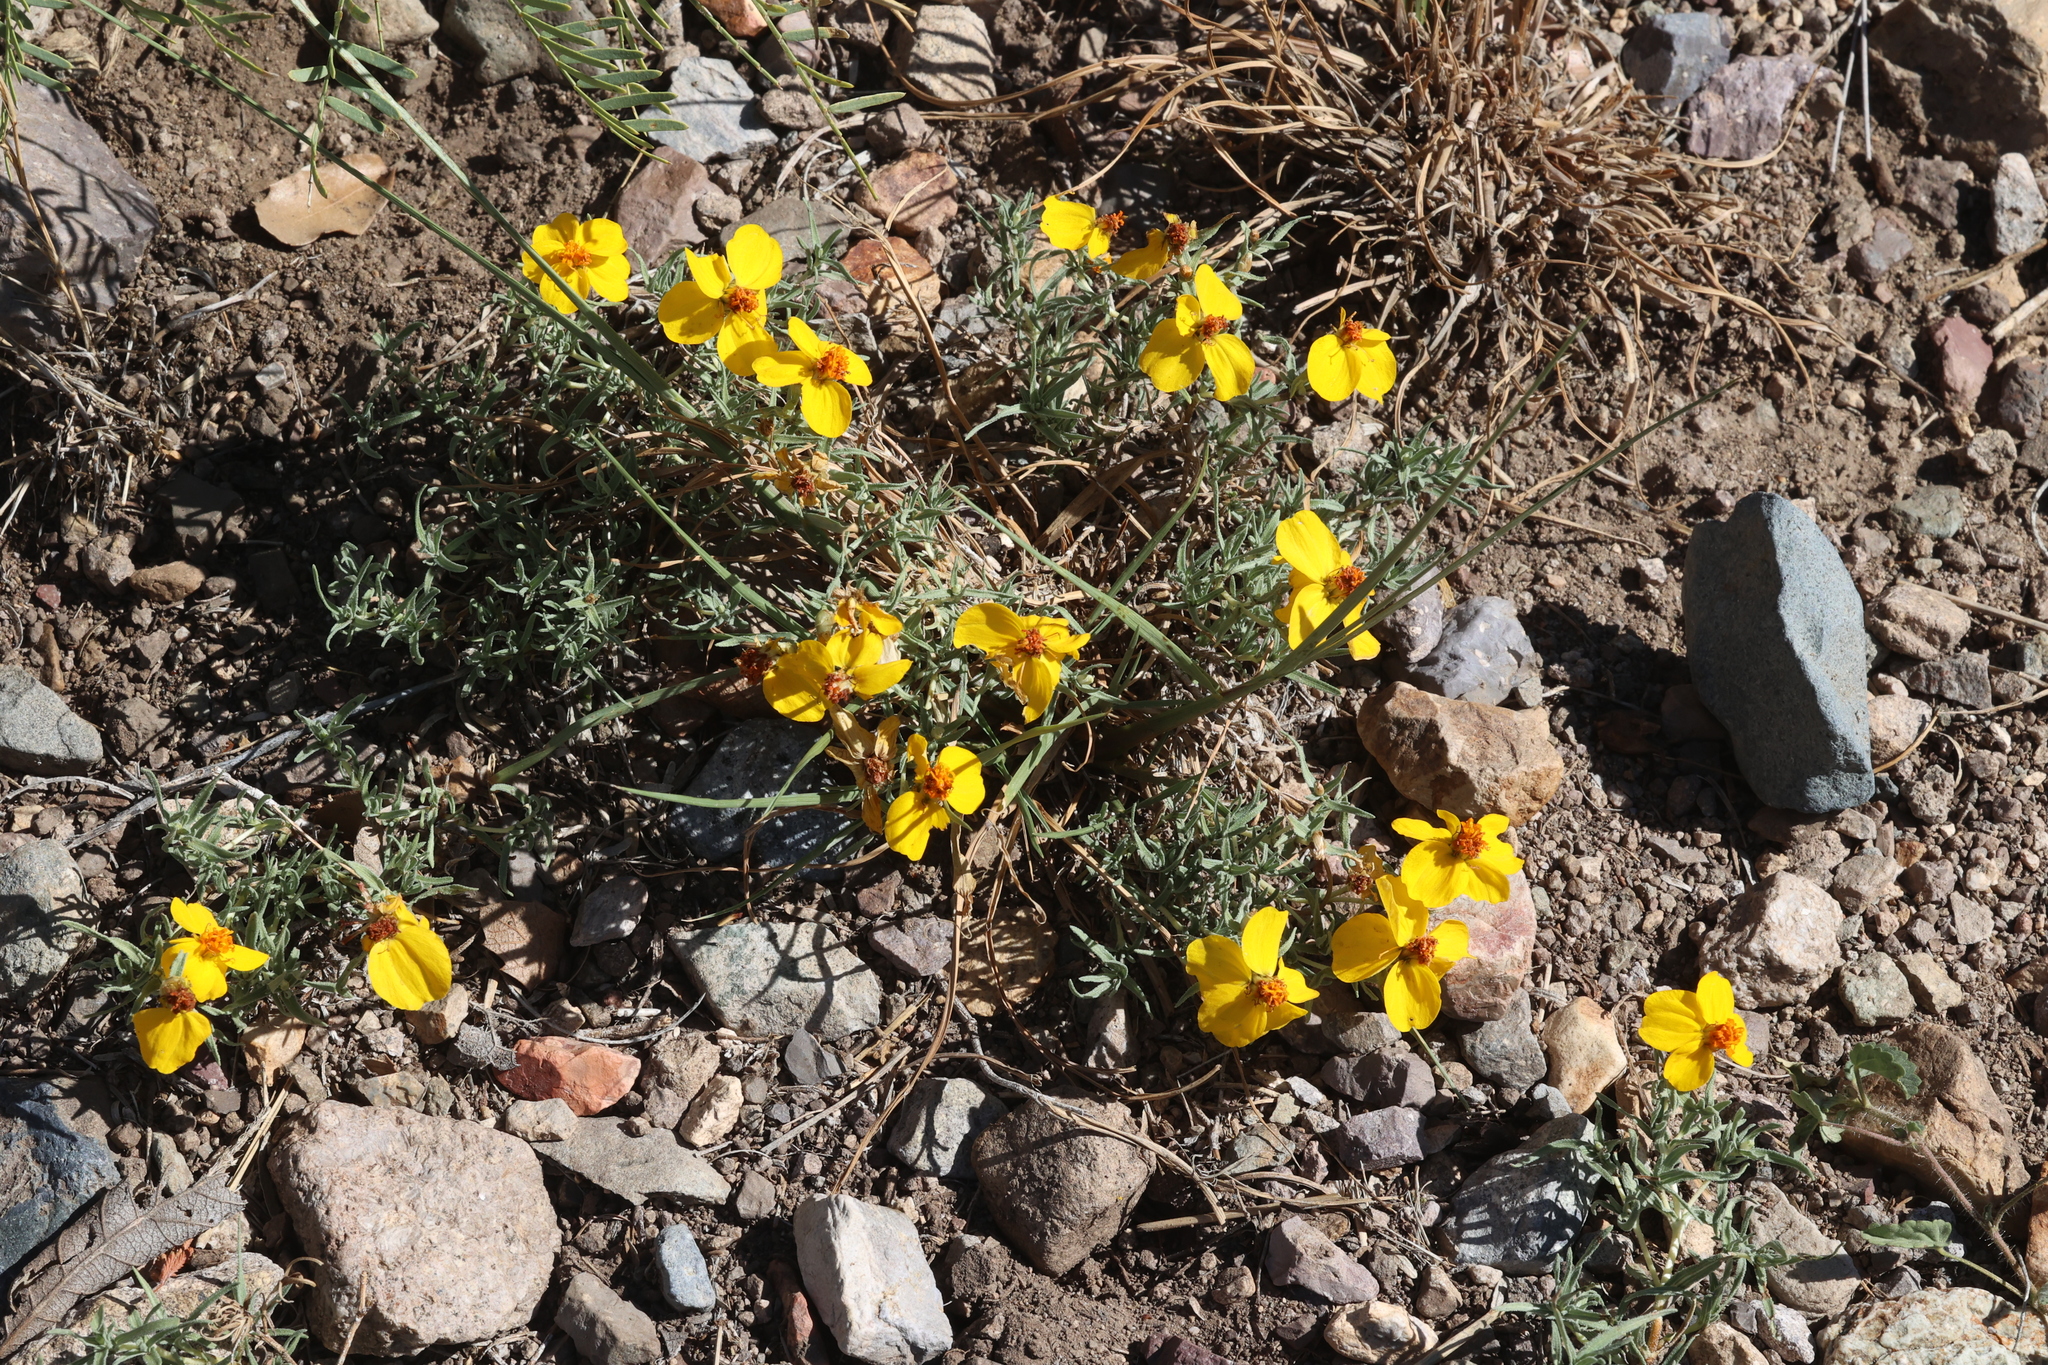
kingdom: Plantae
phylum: Tracheophyta
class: Magnoliopsida
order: Asterales
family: Asteraceae
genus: Zinnia
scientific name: Zinnia grandiflora
